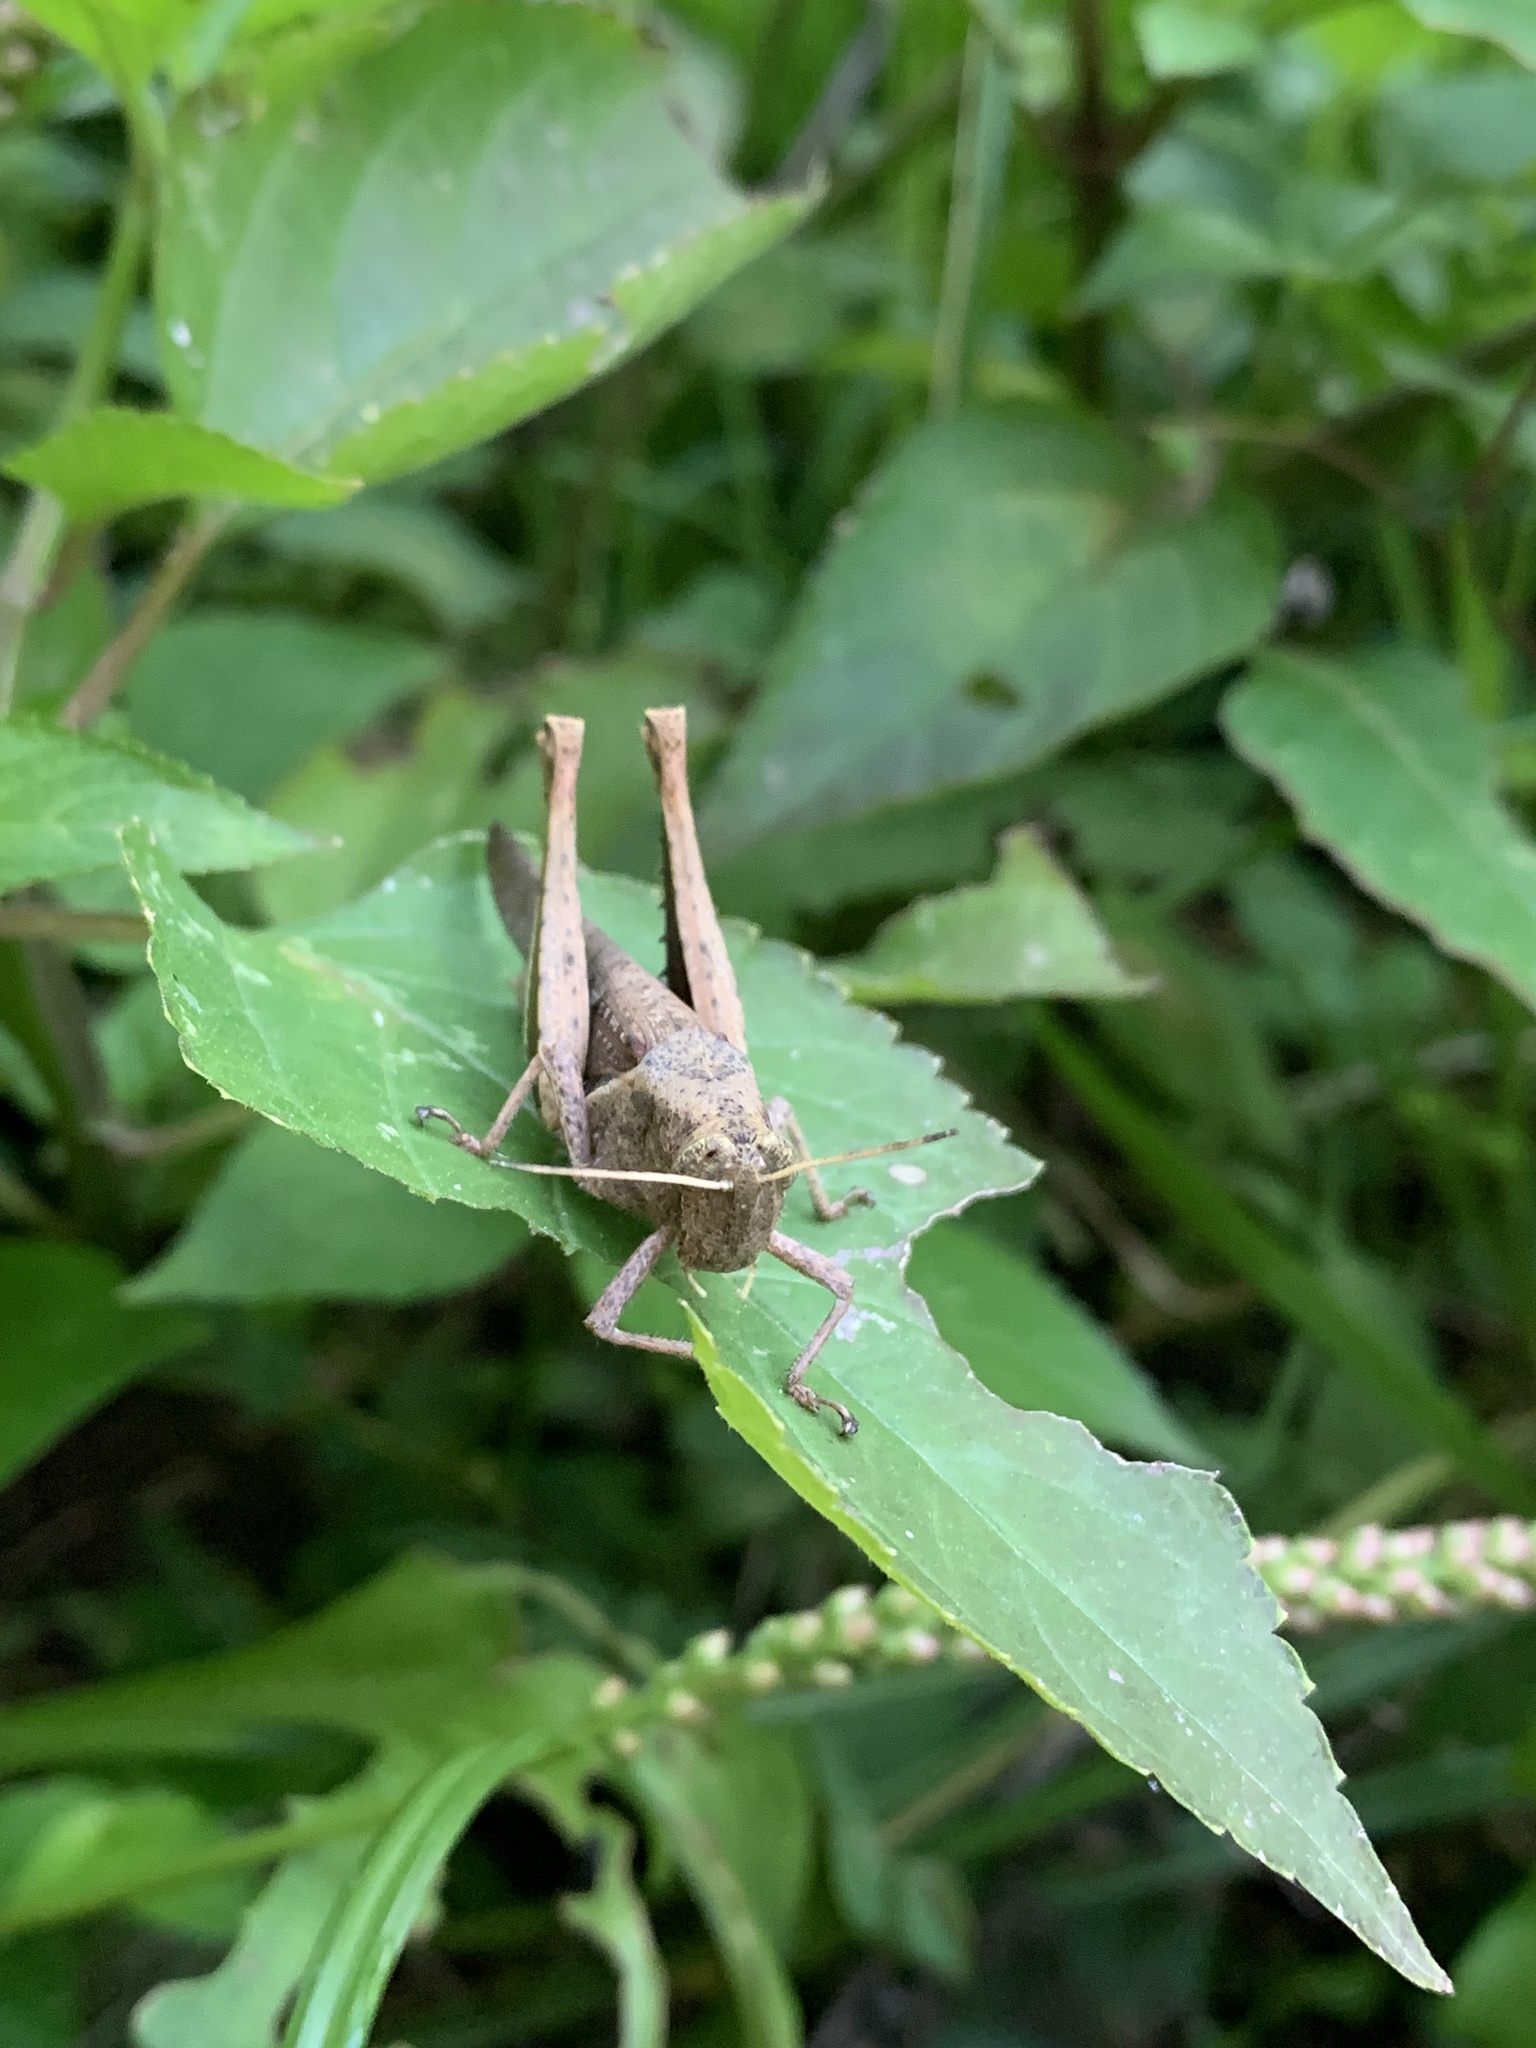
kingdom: Animalia
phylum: Arthropoda
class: Insecta
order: Orthoptera
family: Acrididae
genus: Abracris
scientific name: Abracris flavolineata
